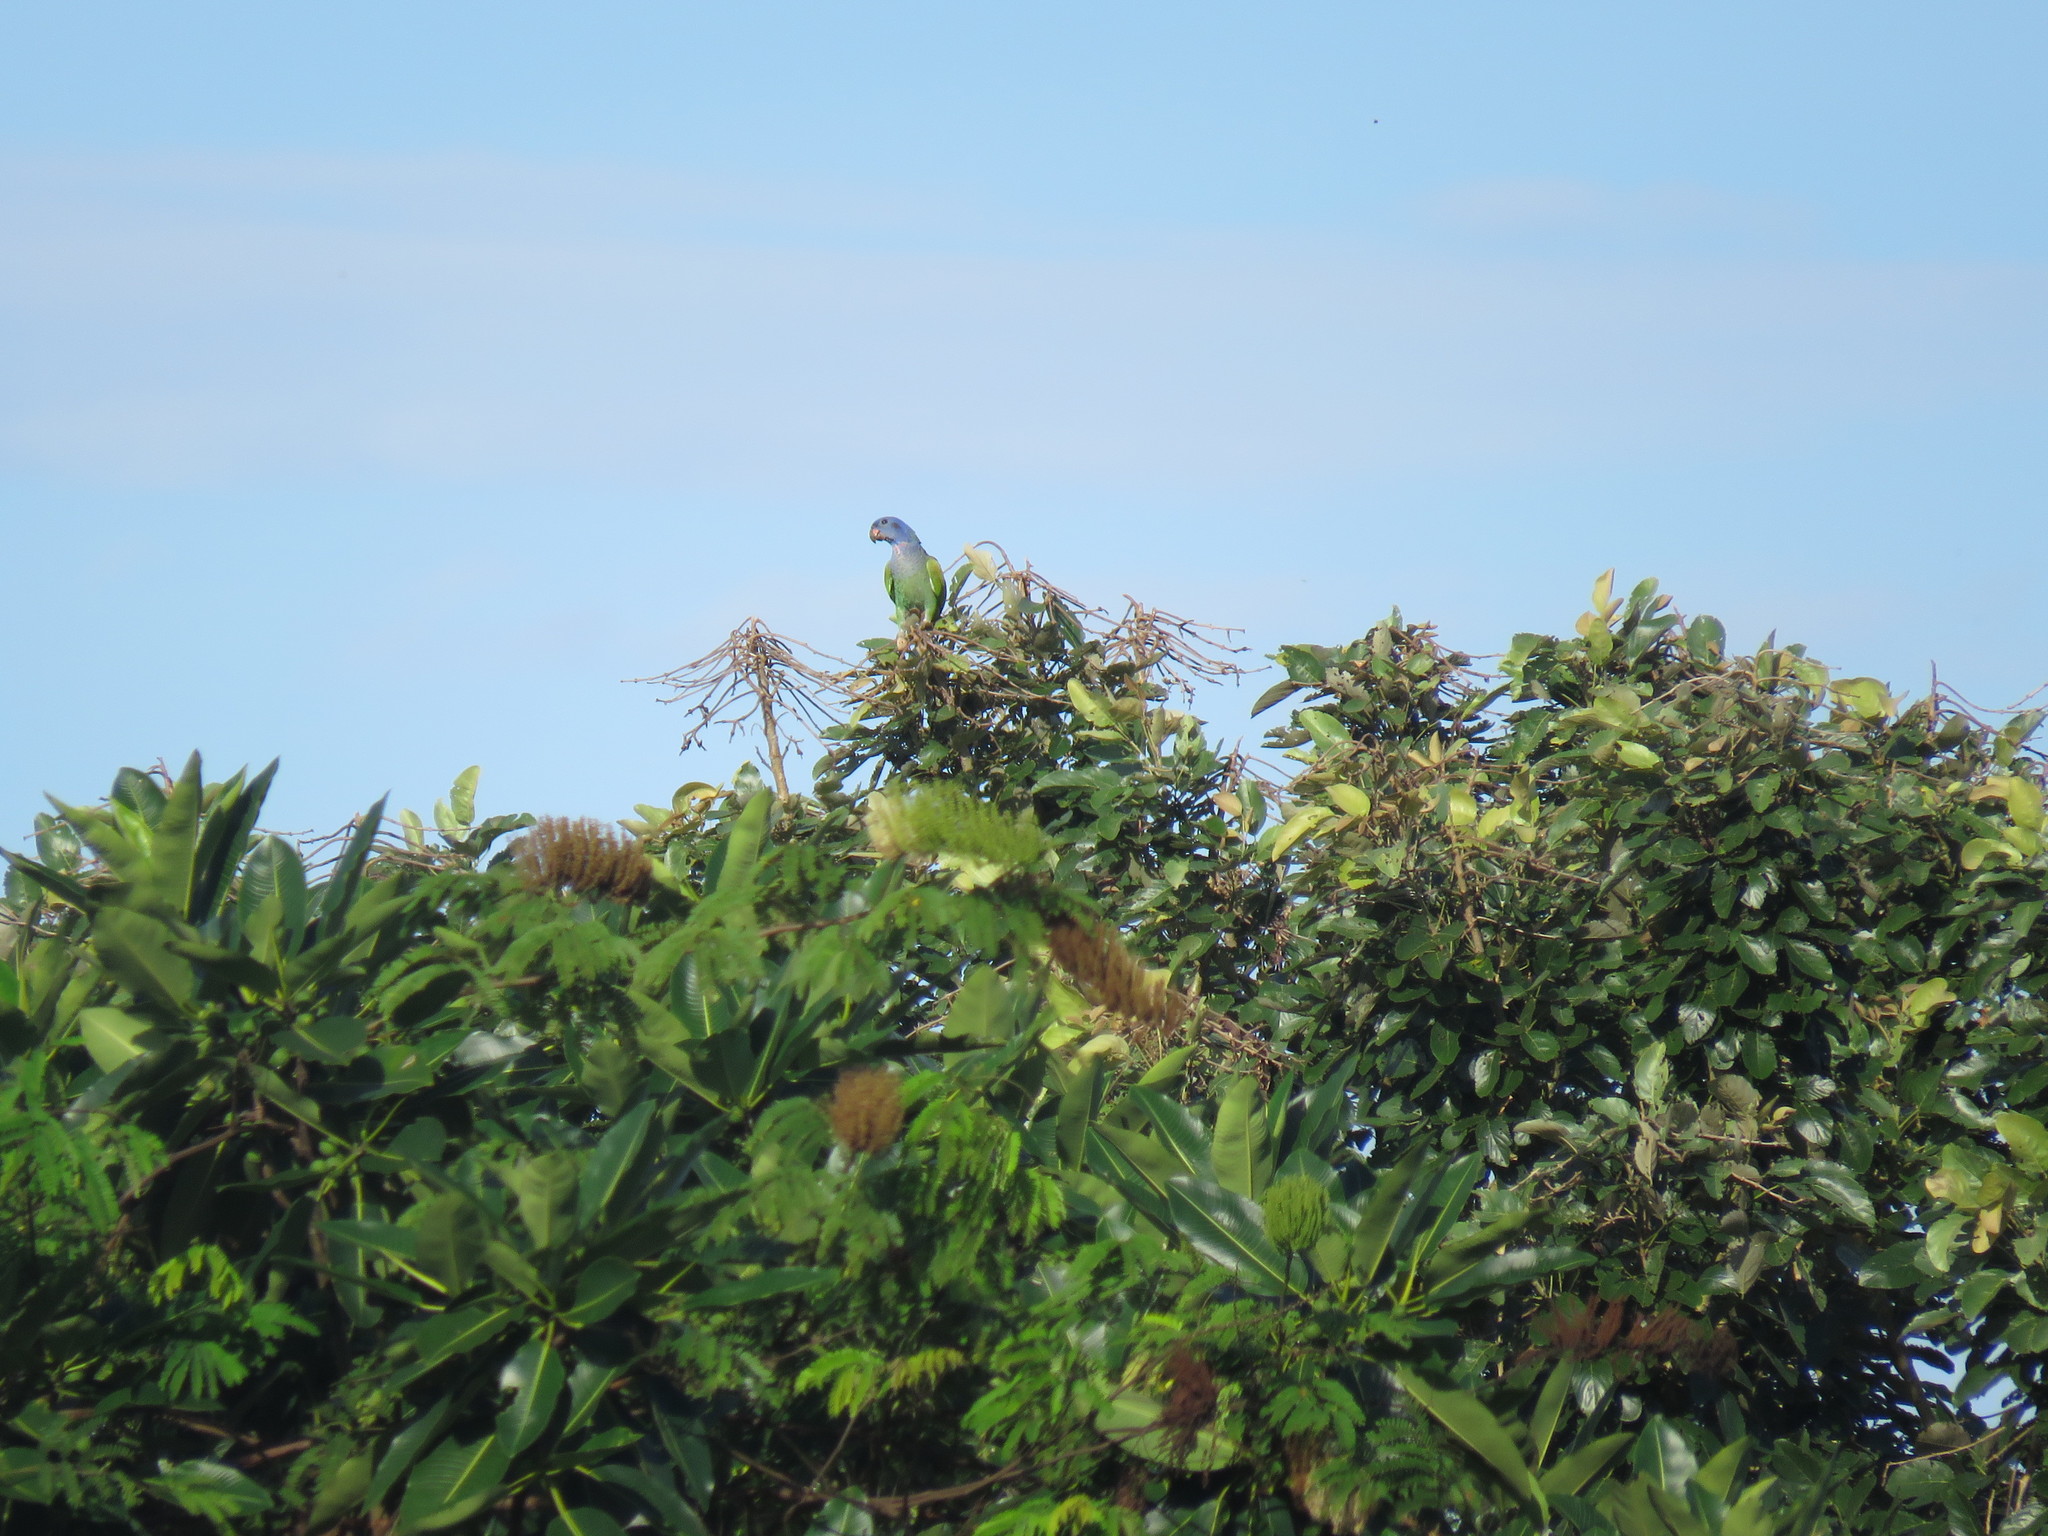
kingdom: Animalia
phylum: Chordata
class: Aves
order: Psittaciformes
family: Psittacidae
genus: Pionus
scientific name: Pionus menstruus
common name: Blue-headed parrot
